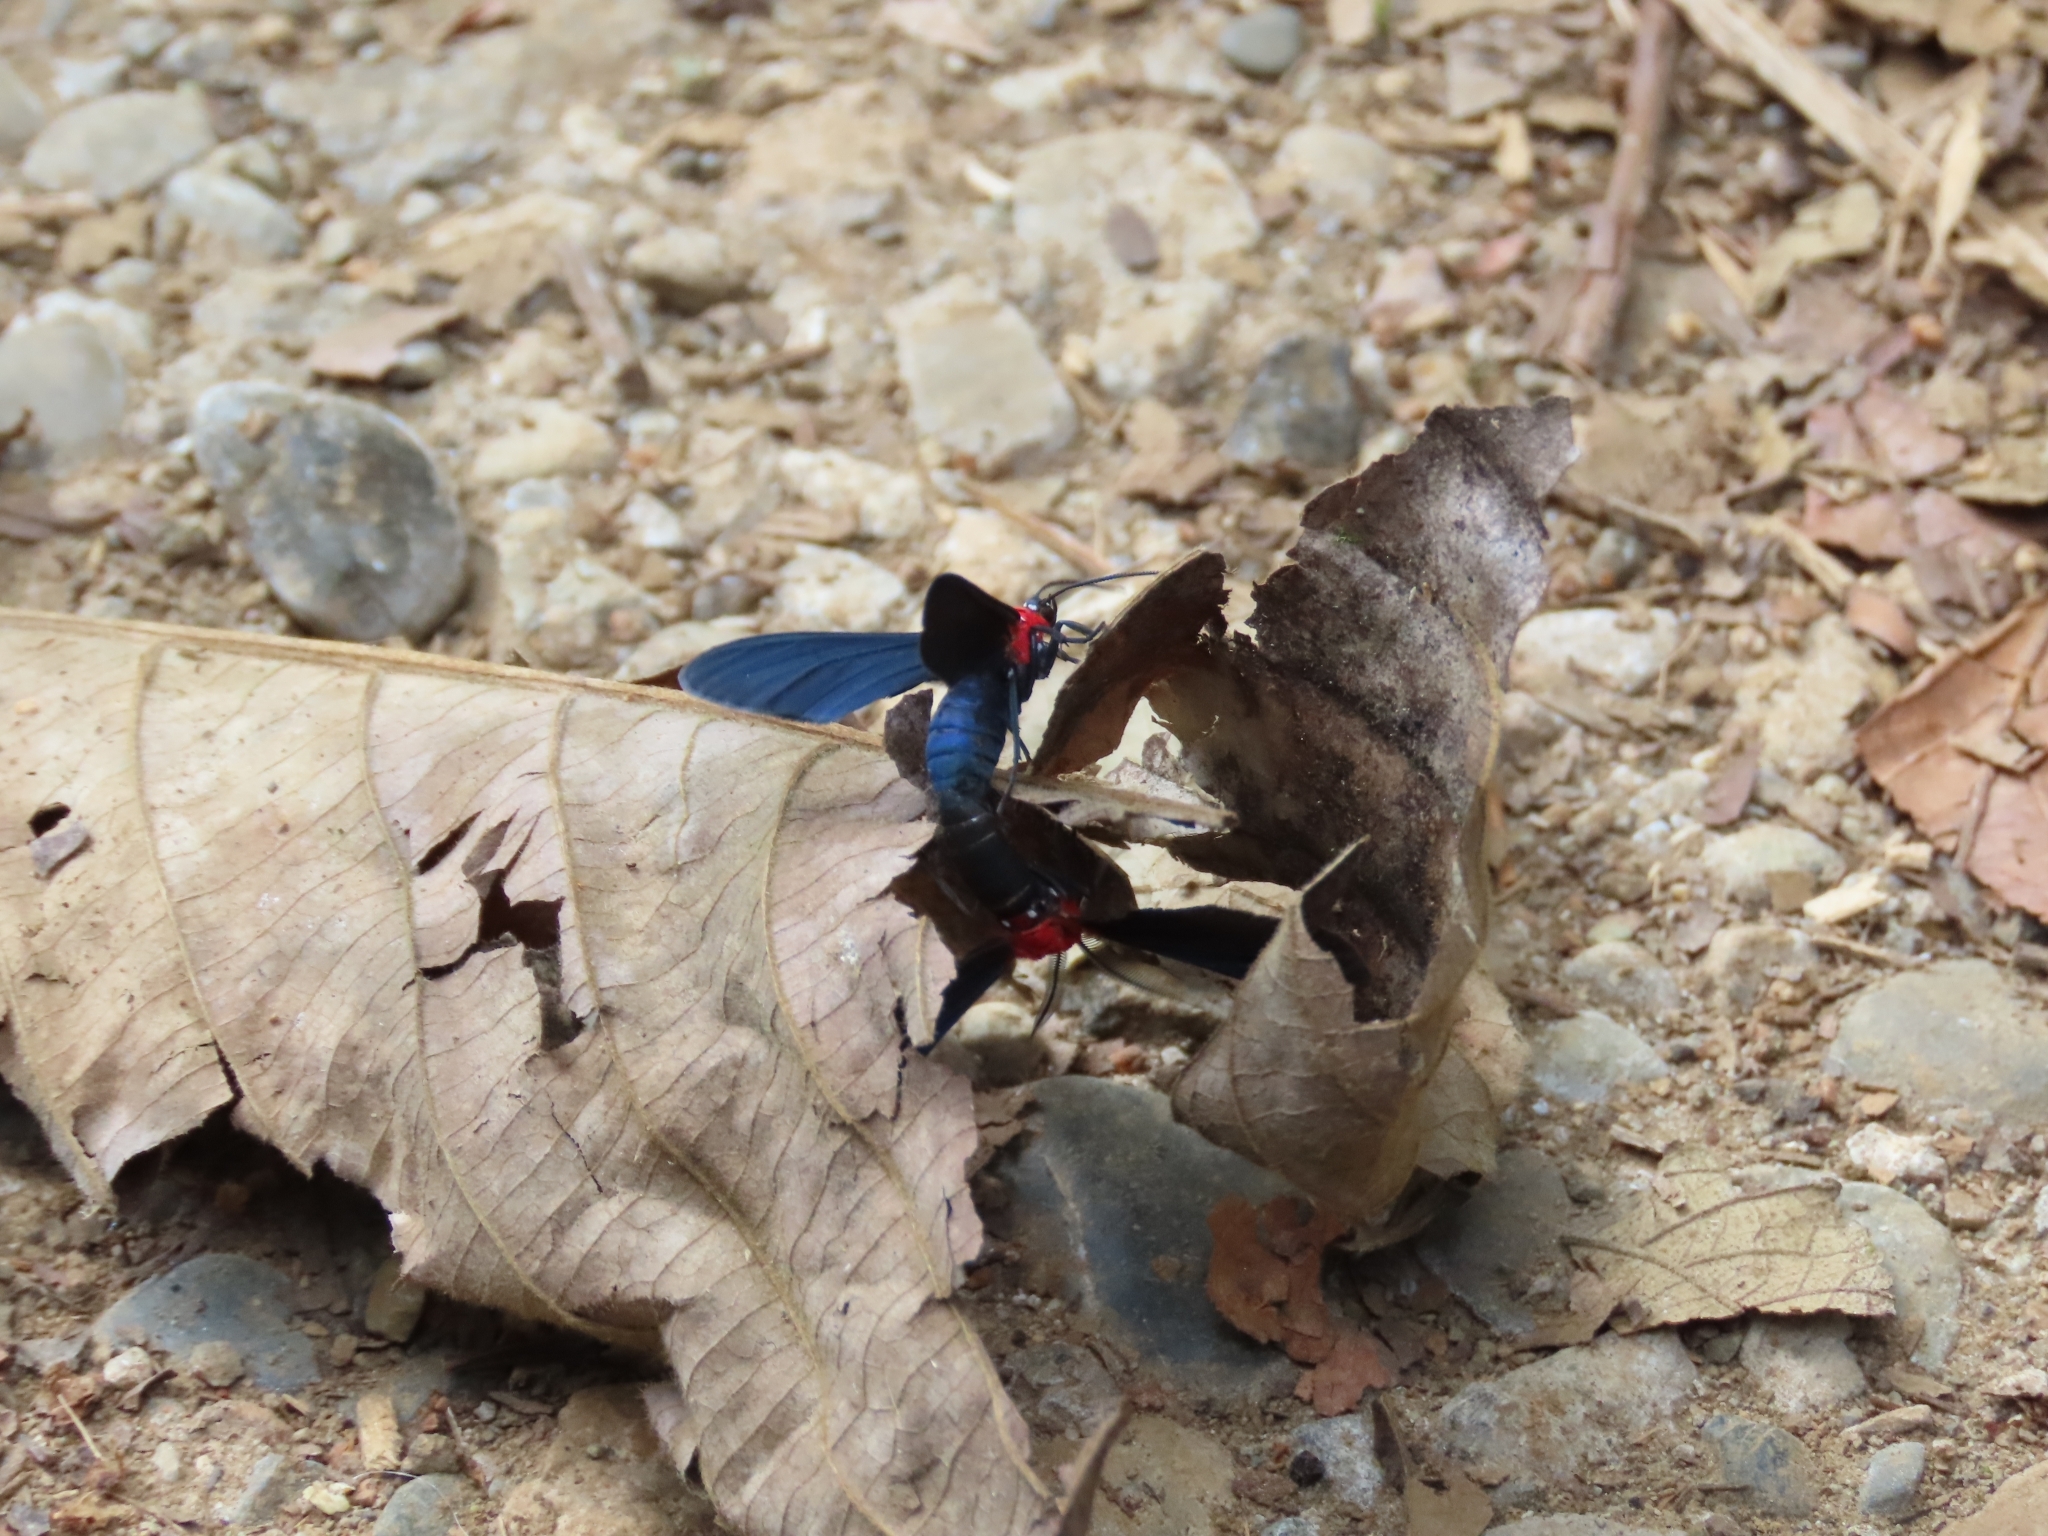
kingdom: Animalia
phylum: Arthropoda
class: Insecta
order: Lepidoptera
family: Erebidae
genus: Psoloptera
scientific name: Psoloptera thoracica
